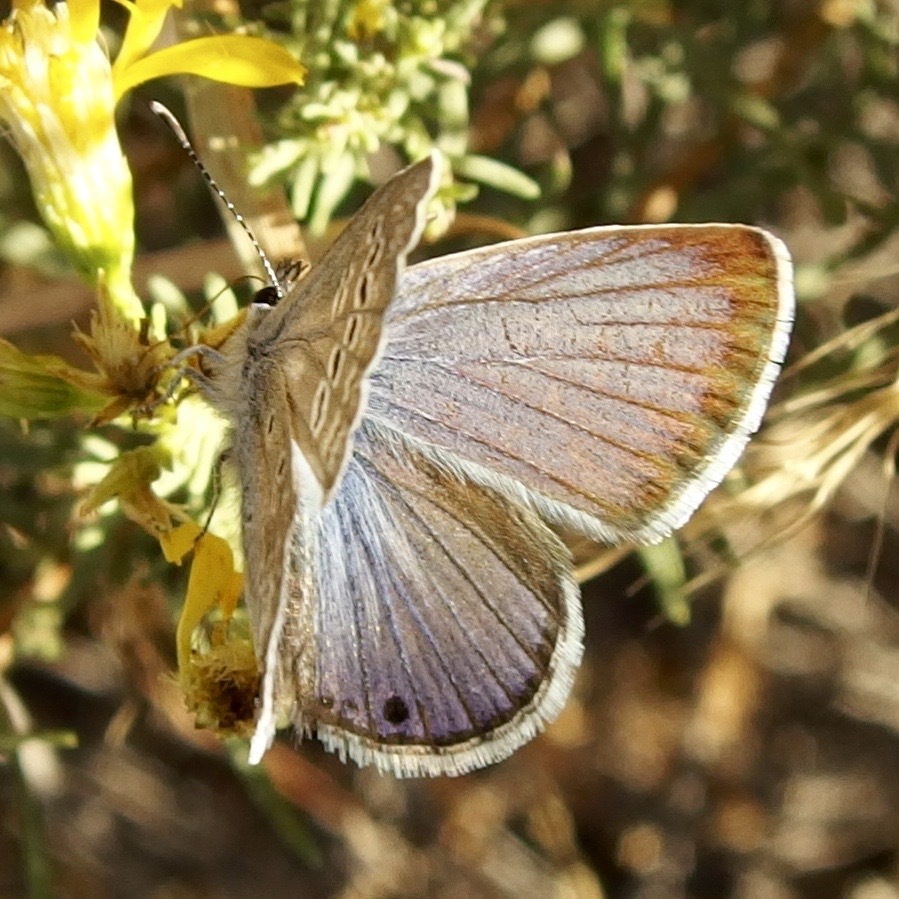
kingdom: Animalia
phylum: Arthropoda
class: Insecta
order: Lepidoptera
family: Lycaenidae
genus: Echinargus
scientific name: Echinargus isola
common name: Reakirt's blue
